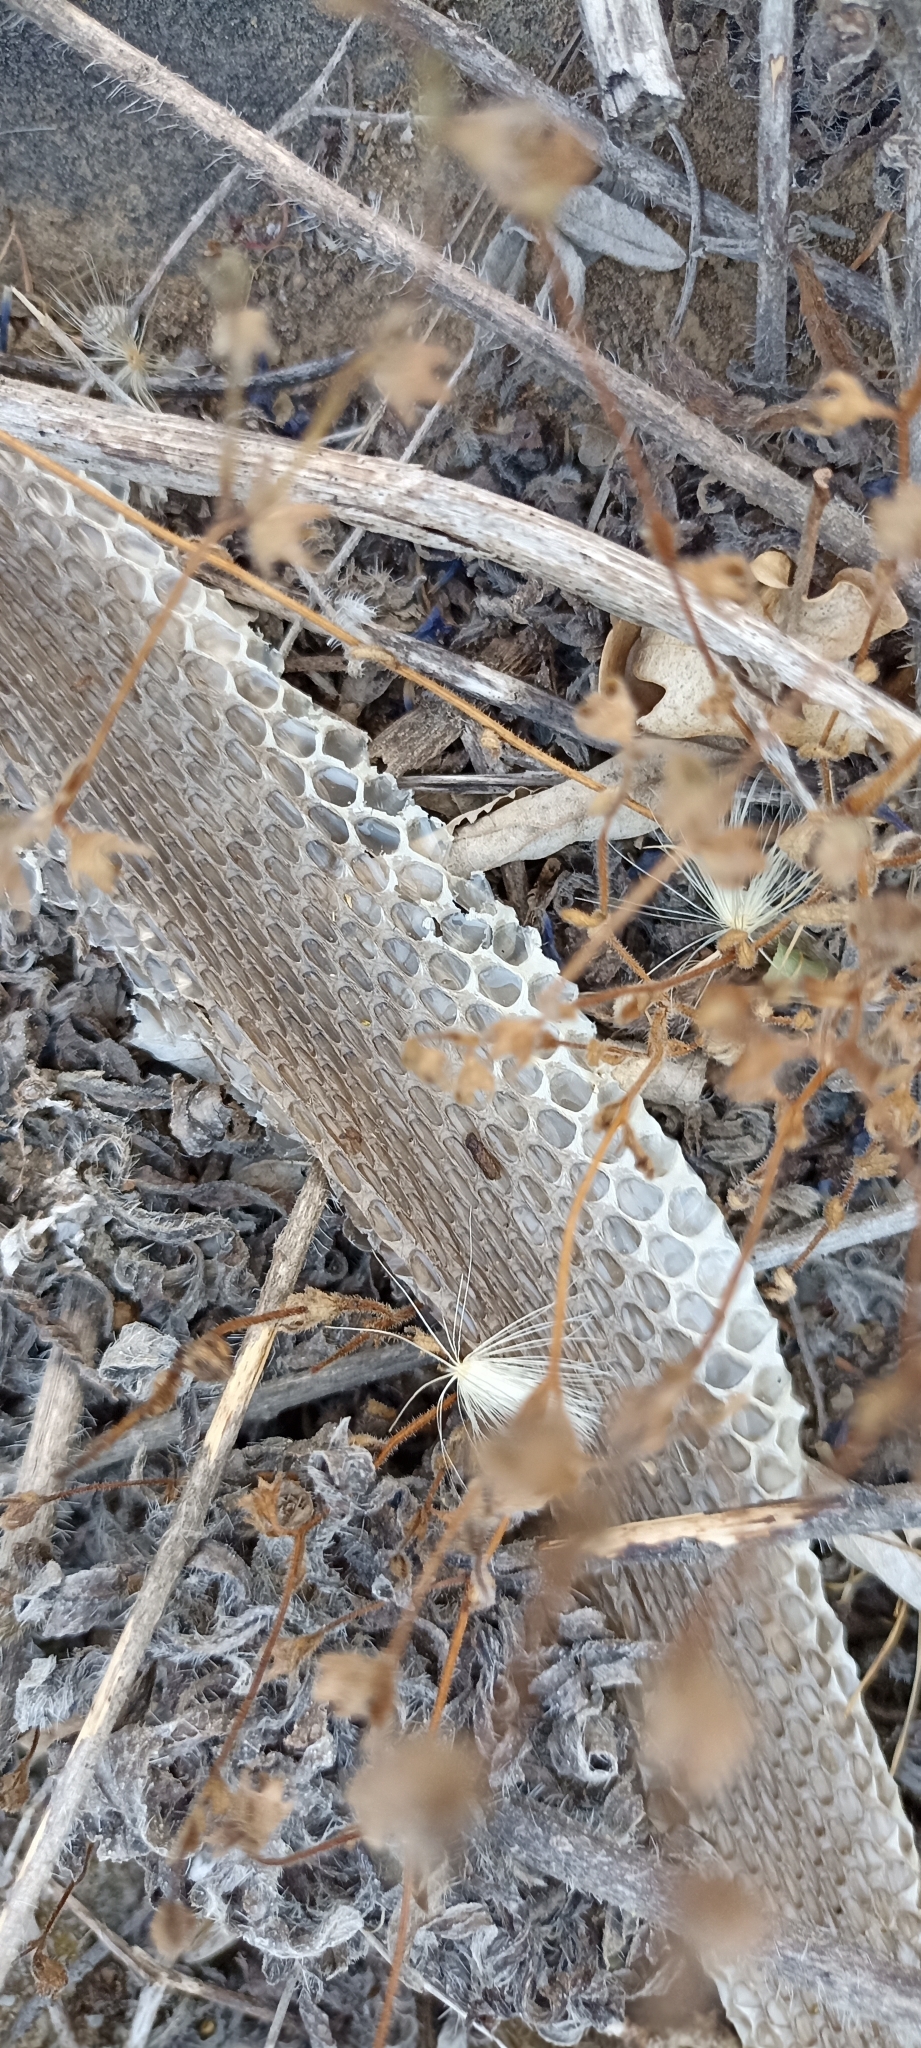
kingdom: Animalia
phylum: Chordata
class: Squamata
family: Psammophiidae
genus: Malpolon
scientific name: Malpolon monspessulanus
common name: Montpellier snake
